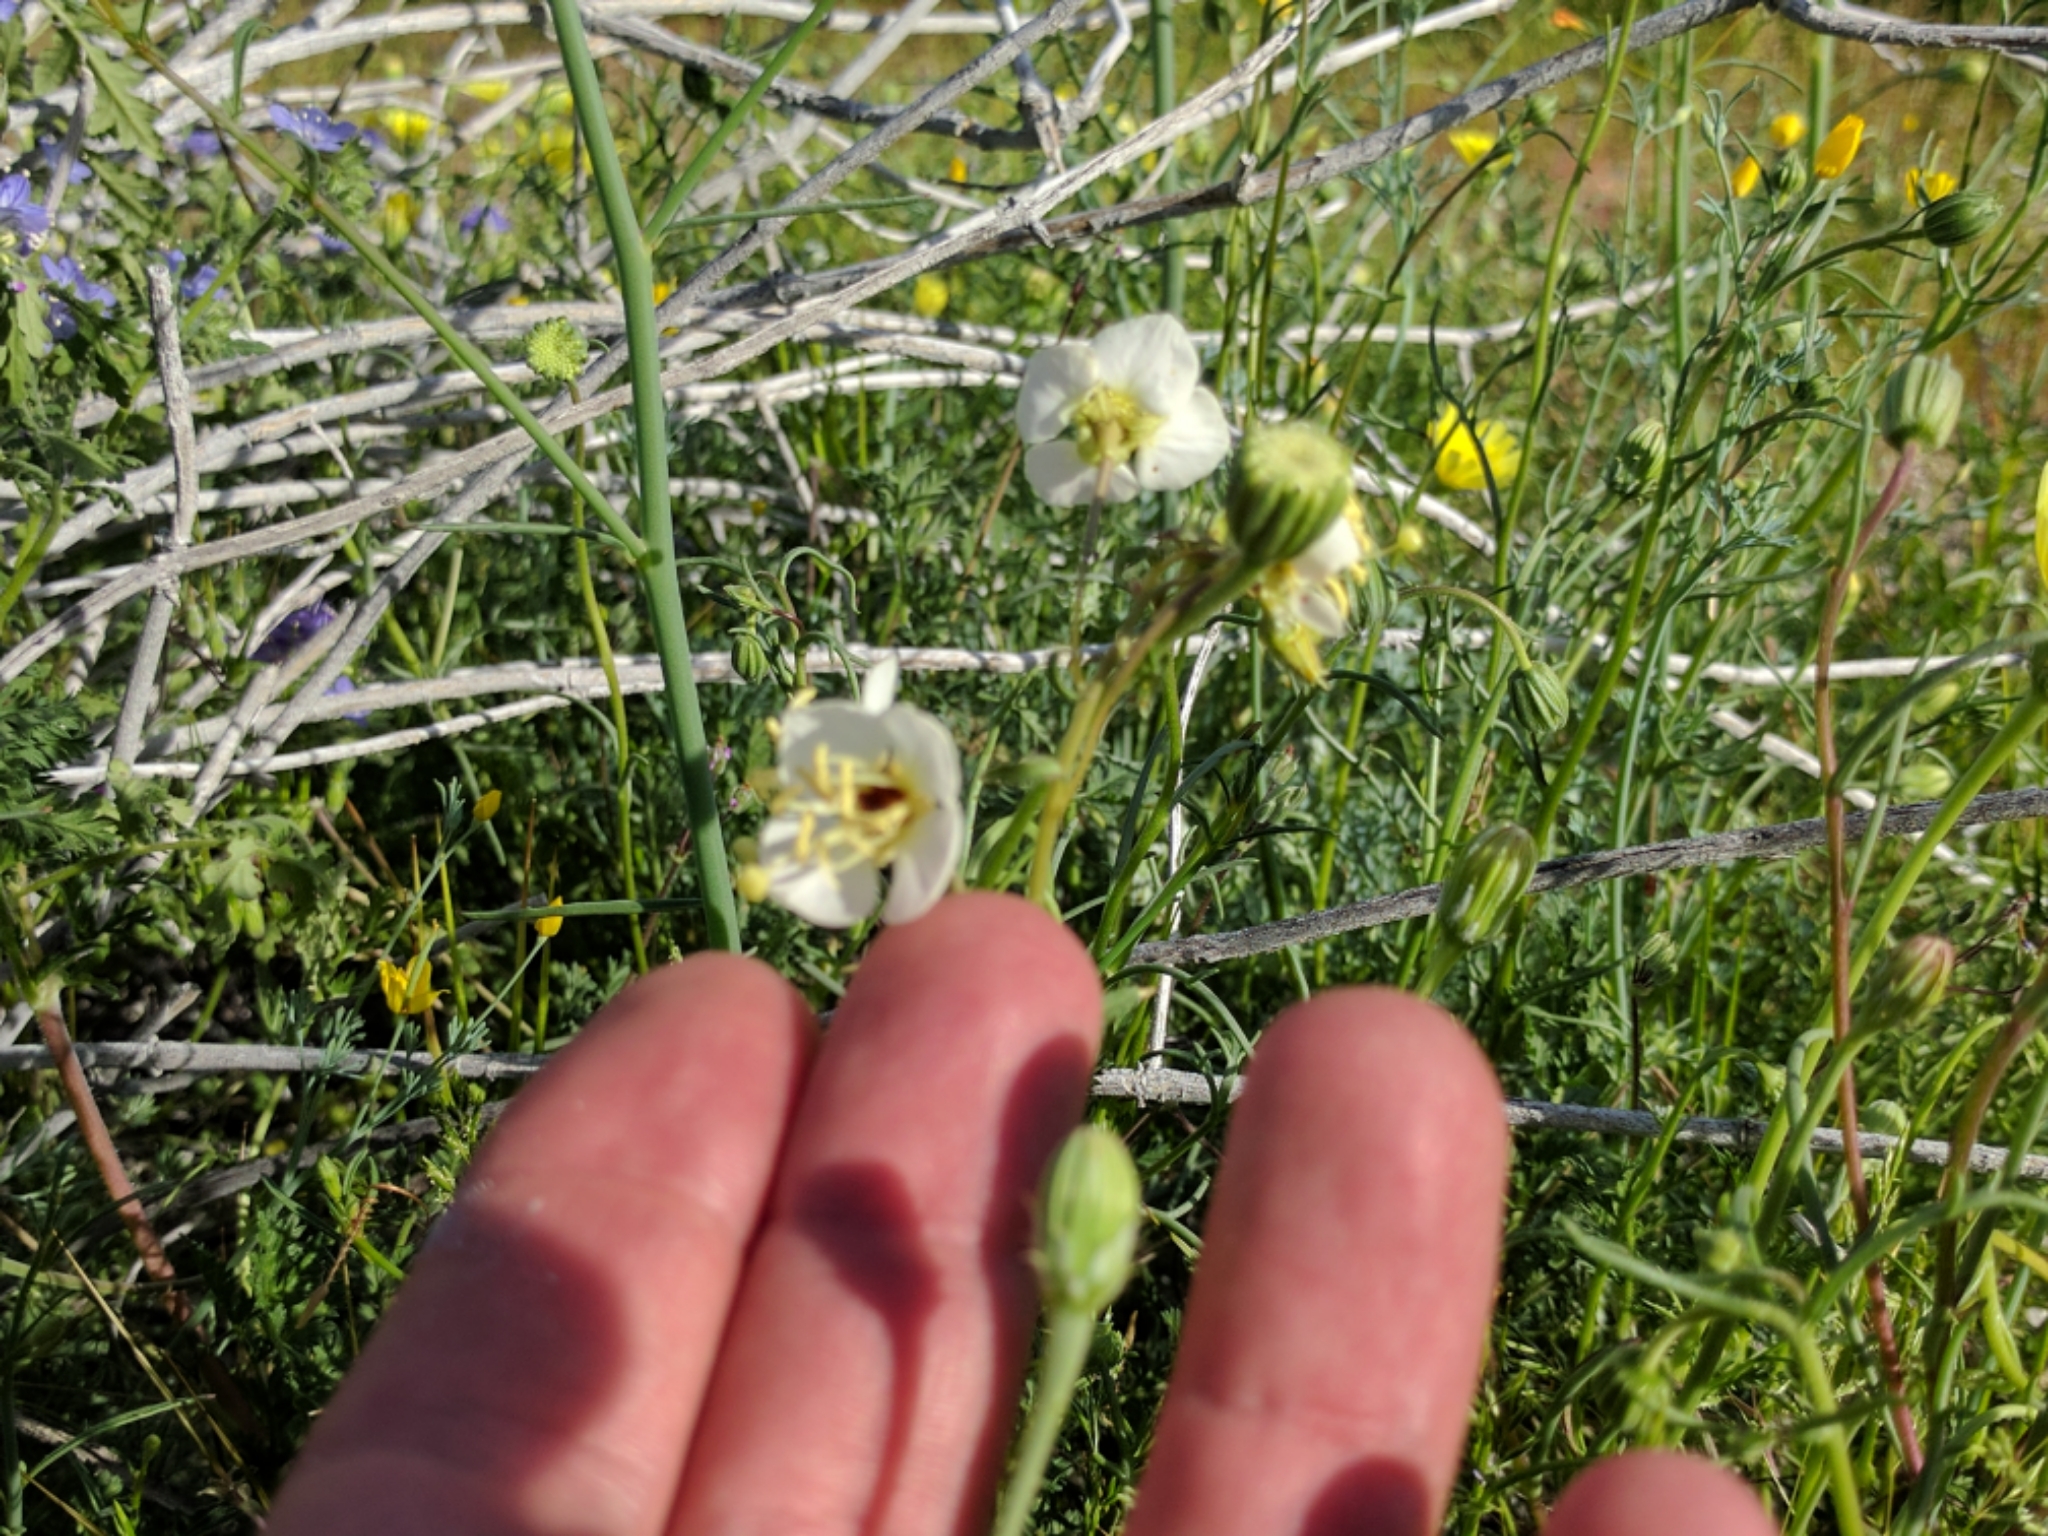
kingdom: Plantae
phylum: Tracheophyta
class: Magnoliopsida
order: Myrtales
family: Onagraceae
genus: Chylismia
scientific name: Chylismia claviformis
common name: Browneyes
